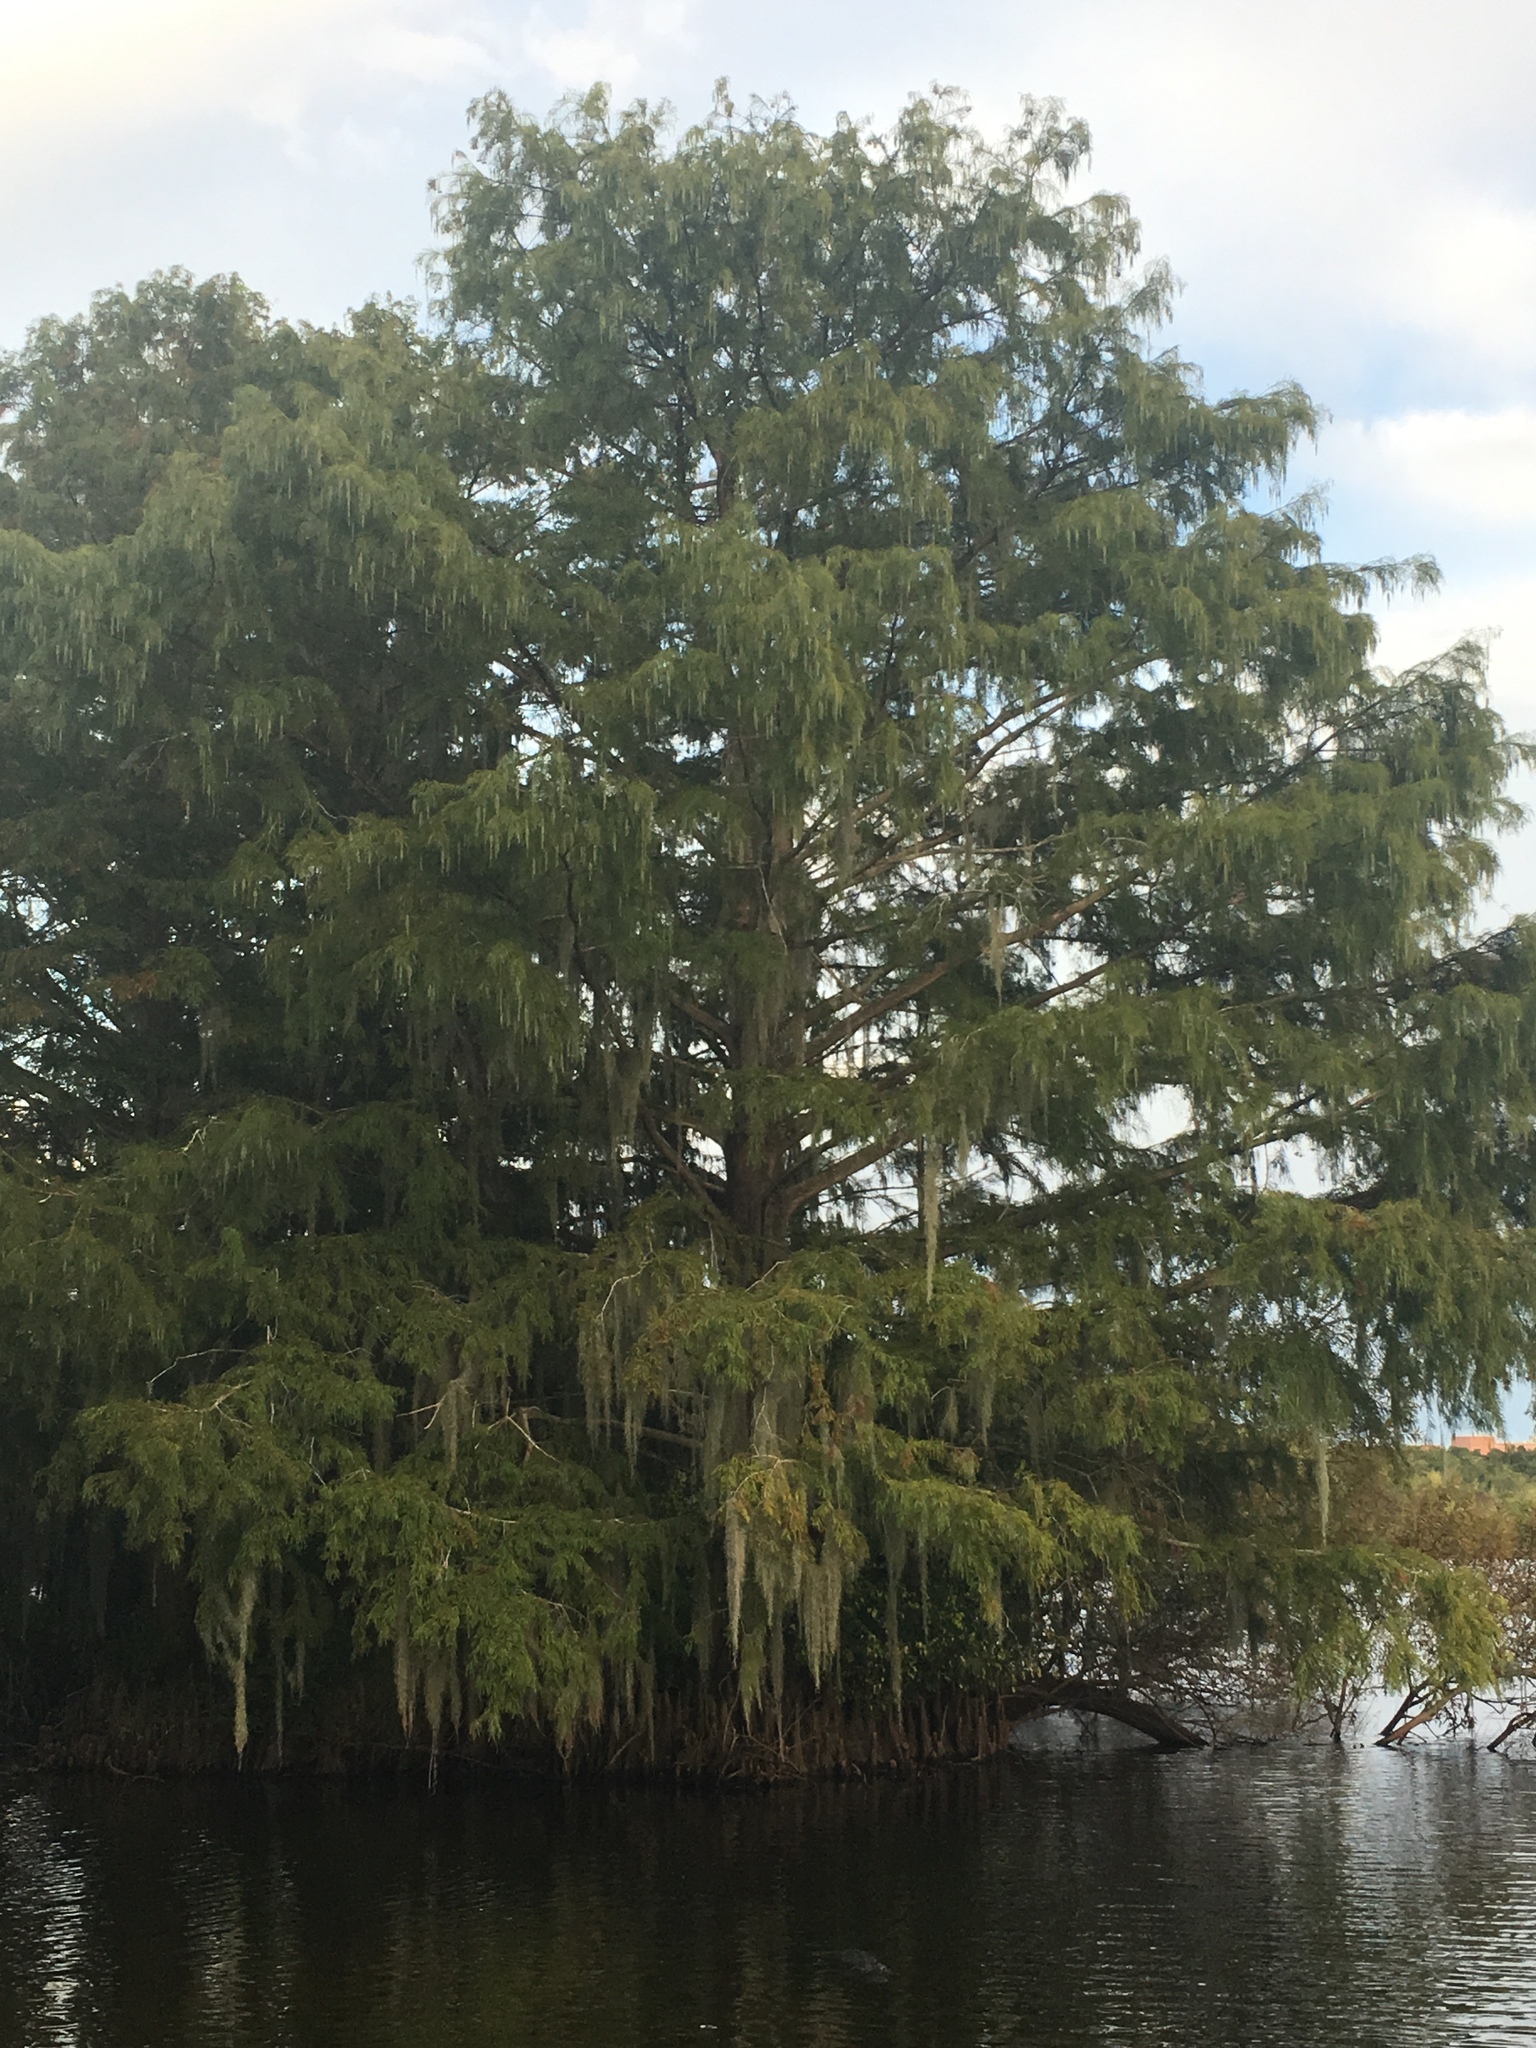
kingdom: Plantae
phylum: Tracheophyta
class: Pinopsida
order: Pinales
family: Cupressaceae
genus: Taxodium
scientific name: Taxodium distichum
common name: Bald cypress
